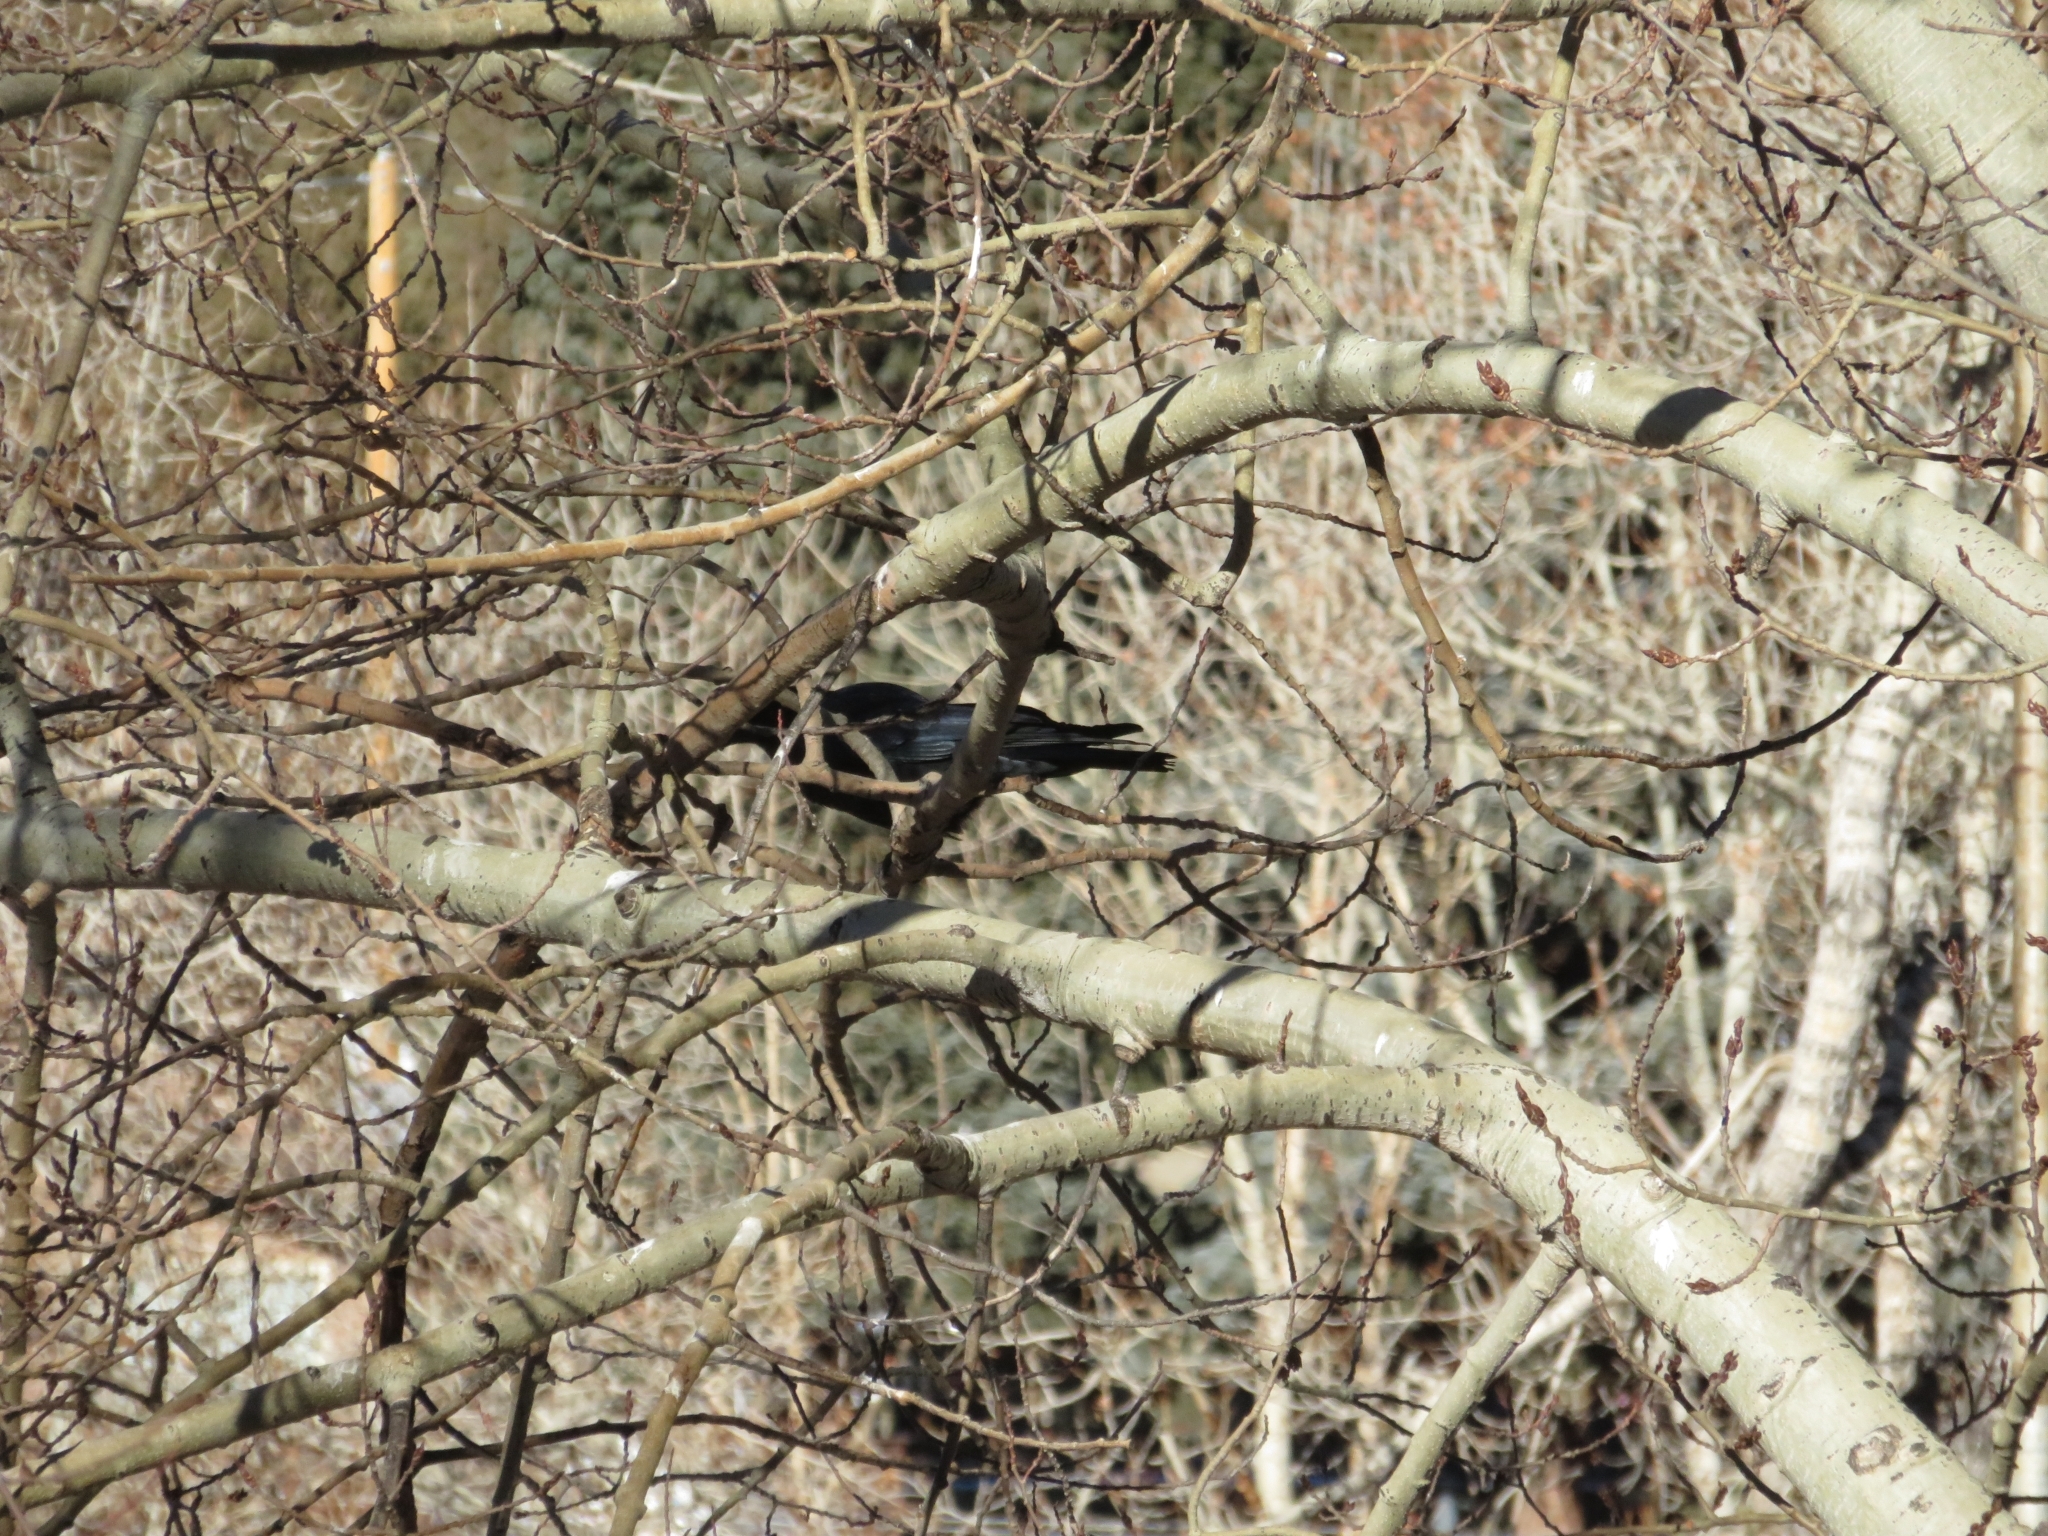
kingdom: Animalia
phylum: Chordata
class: Aves
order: Passeriformes
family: Corvidae
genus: Corvus
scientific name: Corvus brachyrhynchos
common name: American crow
